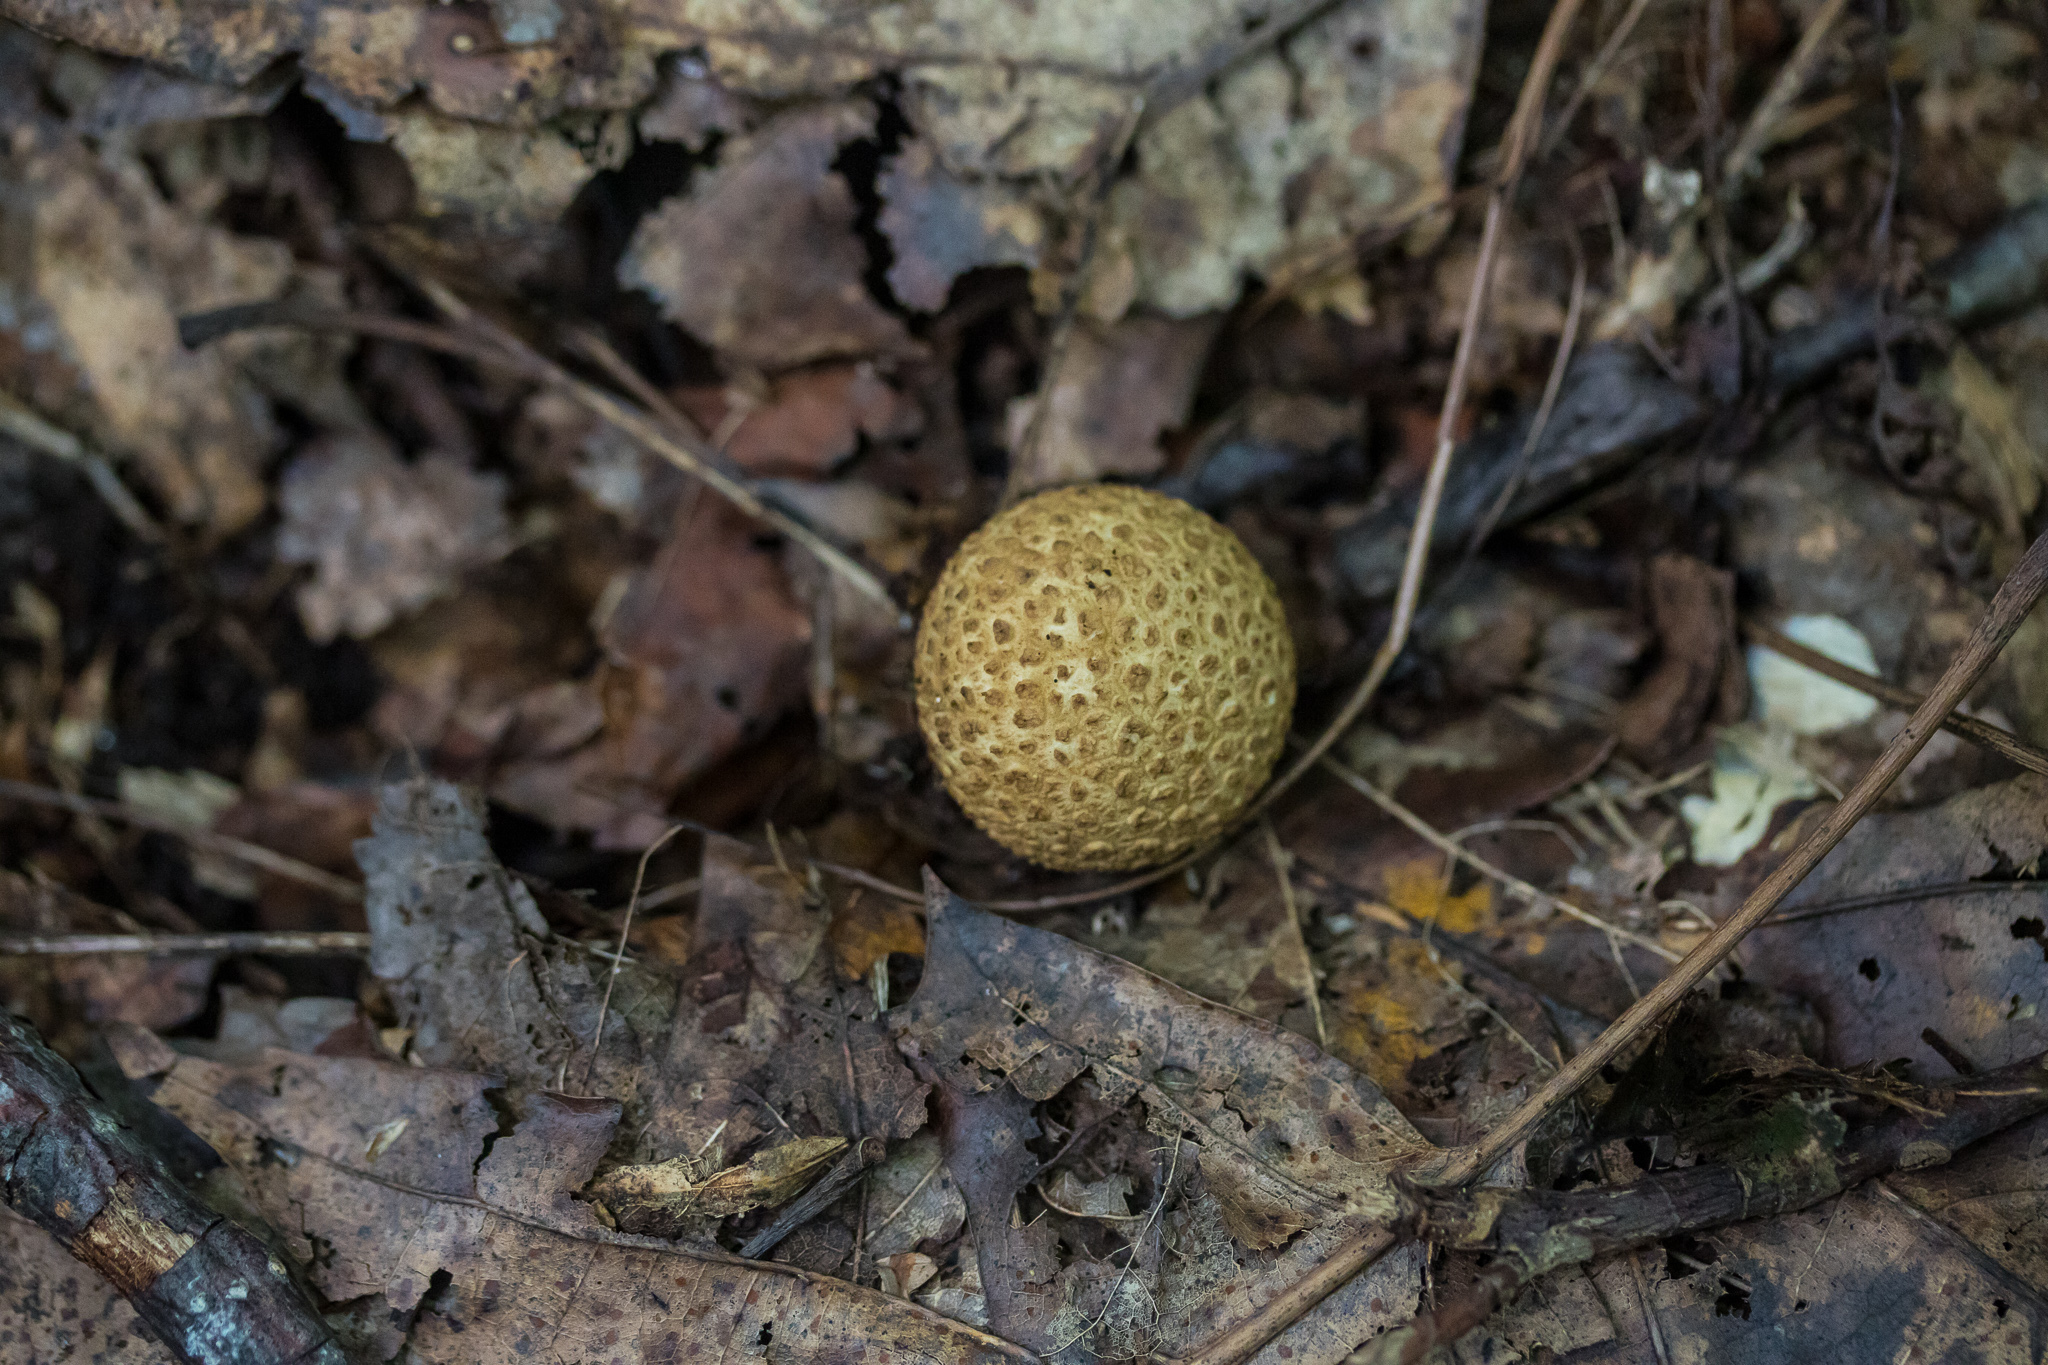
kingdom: Fungi
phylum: Basidiomycota
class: Agaricomycetes
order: Boletales
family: Sclerodermataceae
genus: Scleroderma
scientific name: Scleroderma citrinum
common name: Common earthball
